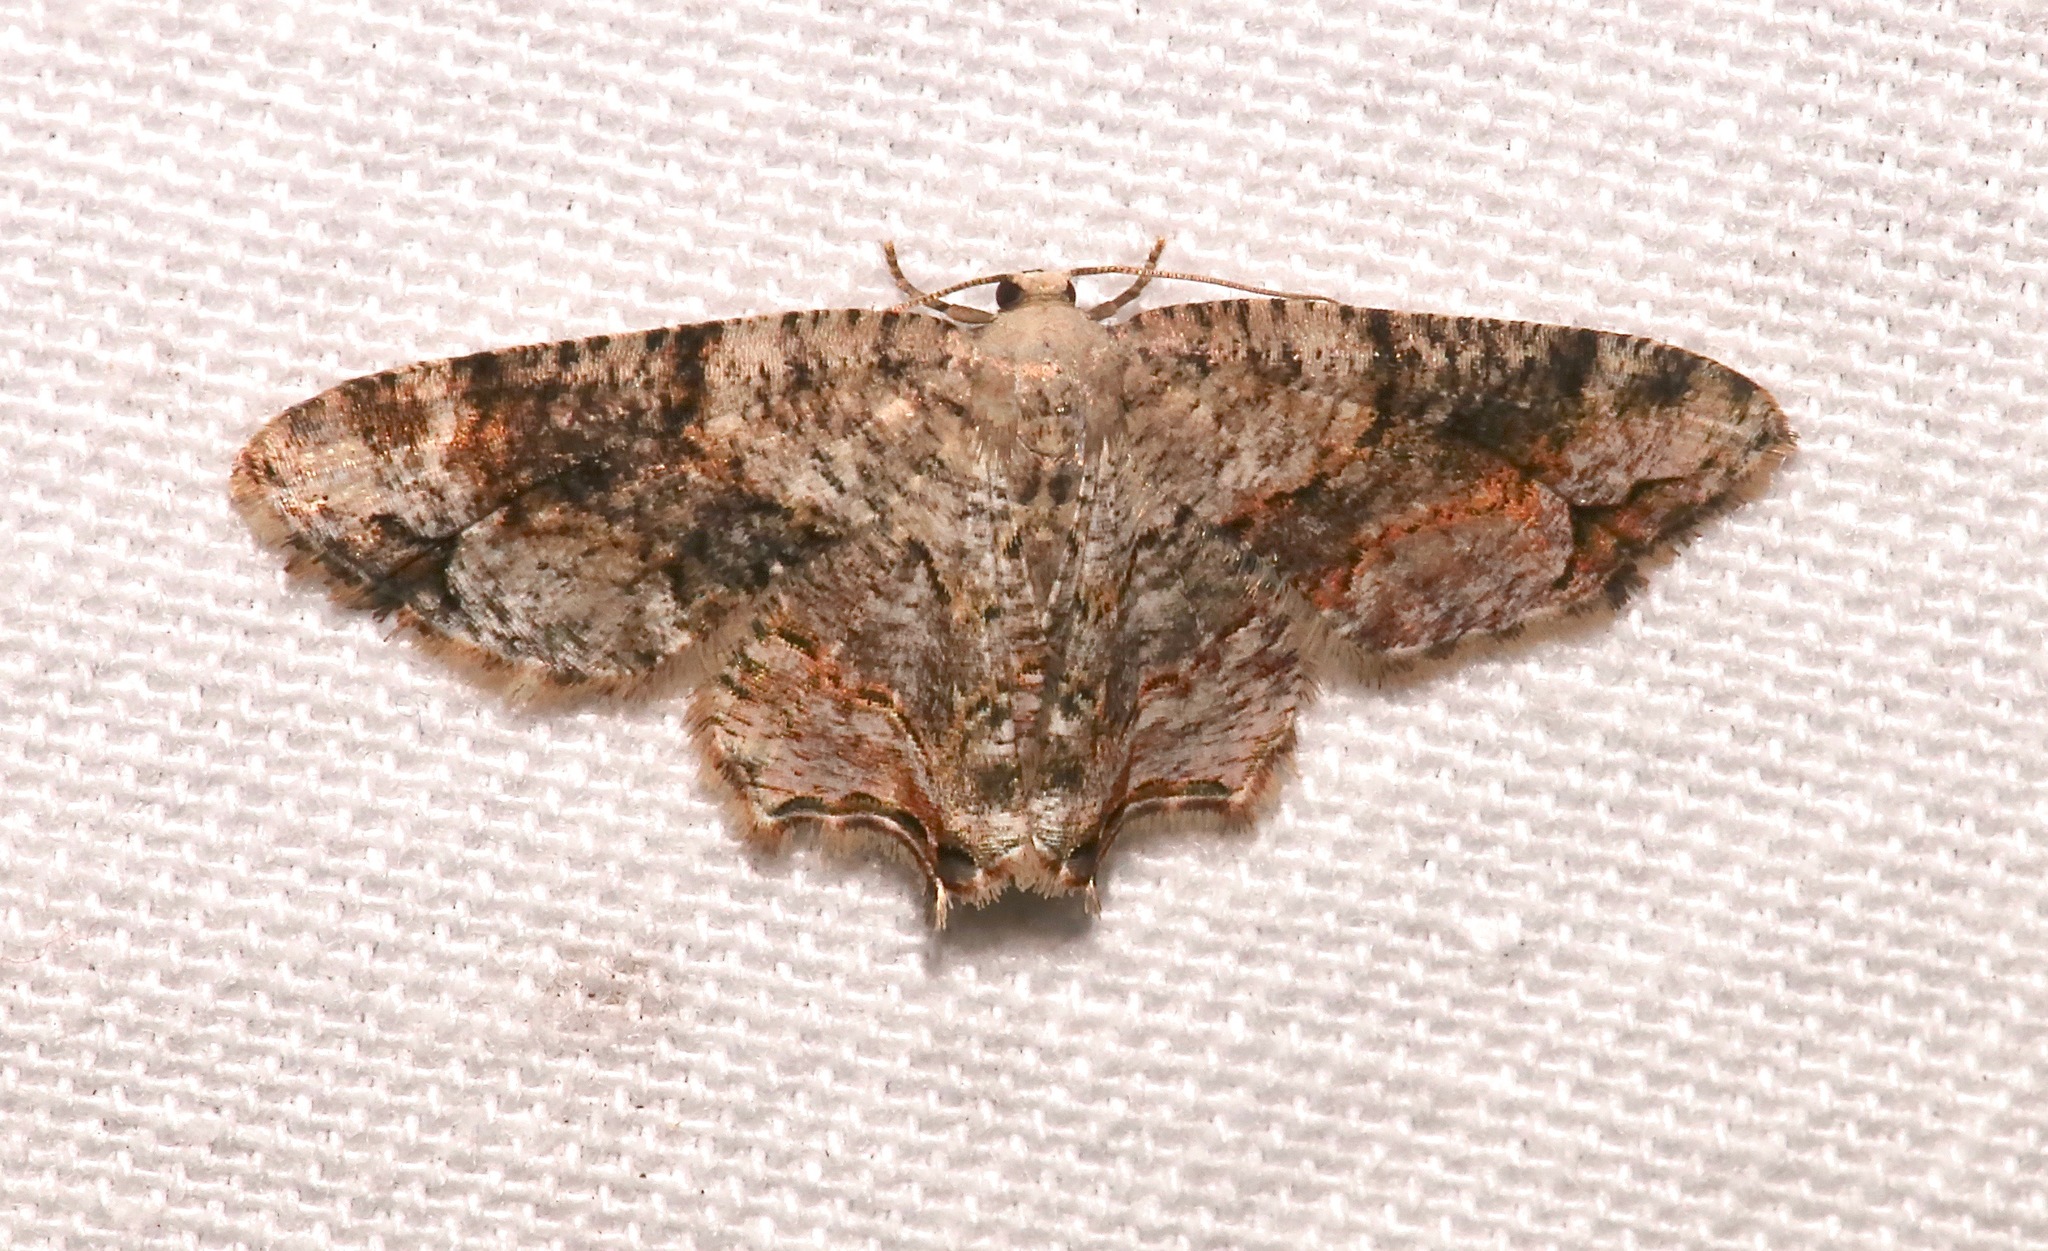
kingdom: Animalia
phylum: Arthropoda
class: Insecta
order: Lepidoptera
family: Uraniidae
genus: Epiplema
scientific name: Epiplema Callizzia certiorara
